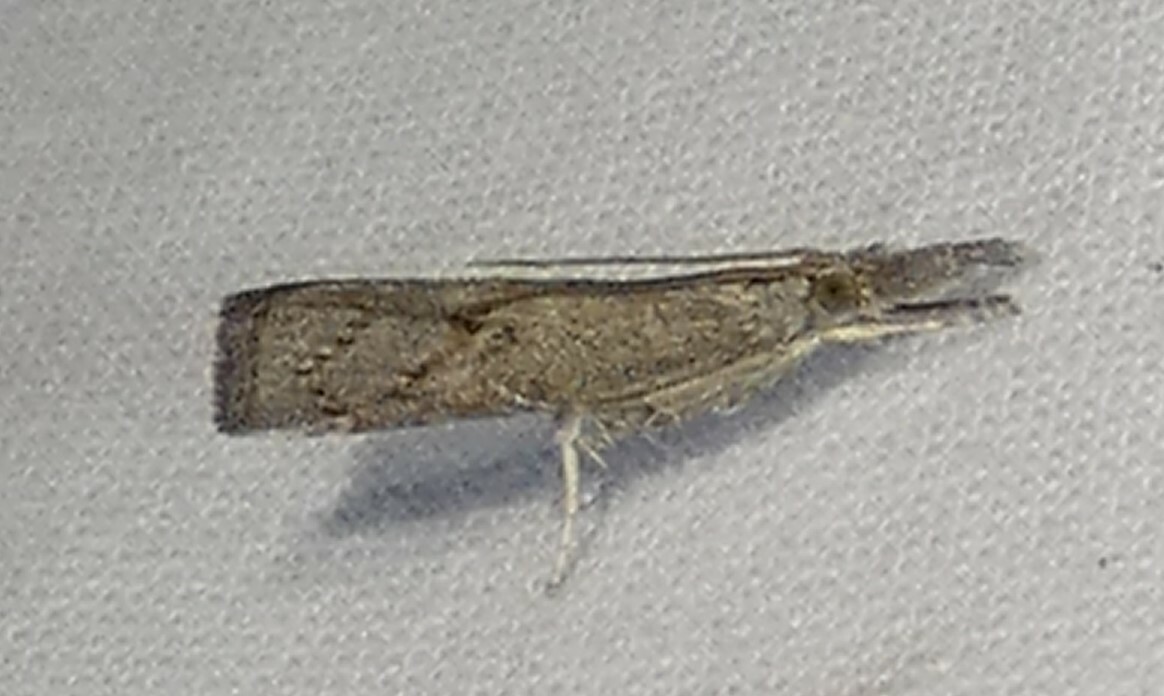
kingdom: Animalia
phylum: Arthropoda
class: Insecta
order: Lepidoptera
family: Crambidae
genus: Neodactria
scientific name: Neodactria luteolellus
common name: Mottled grass-veneer
